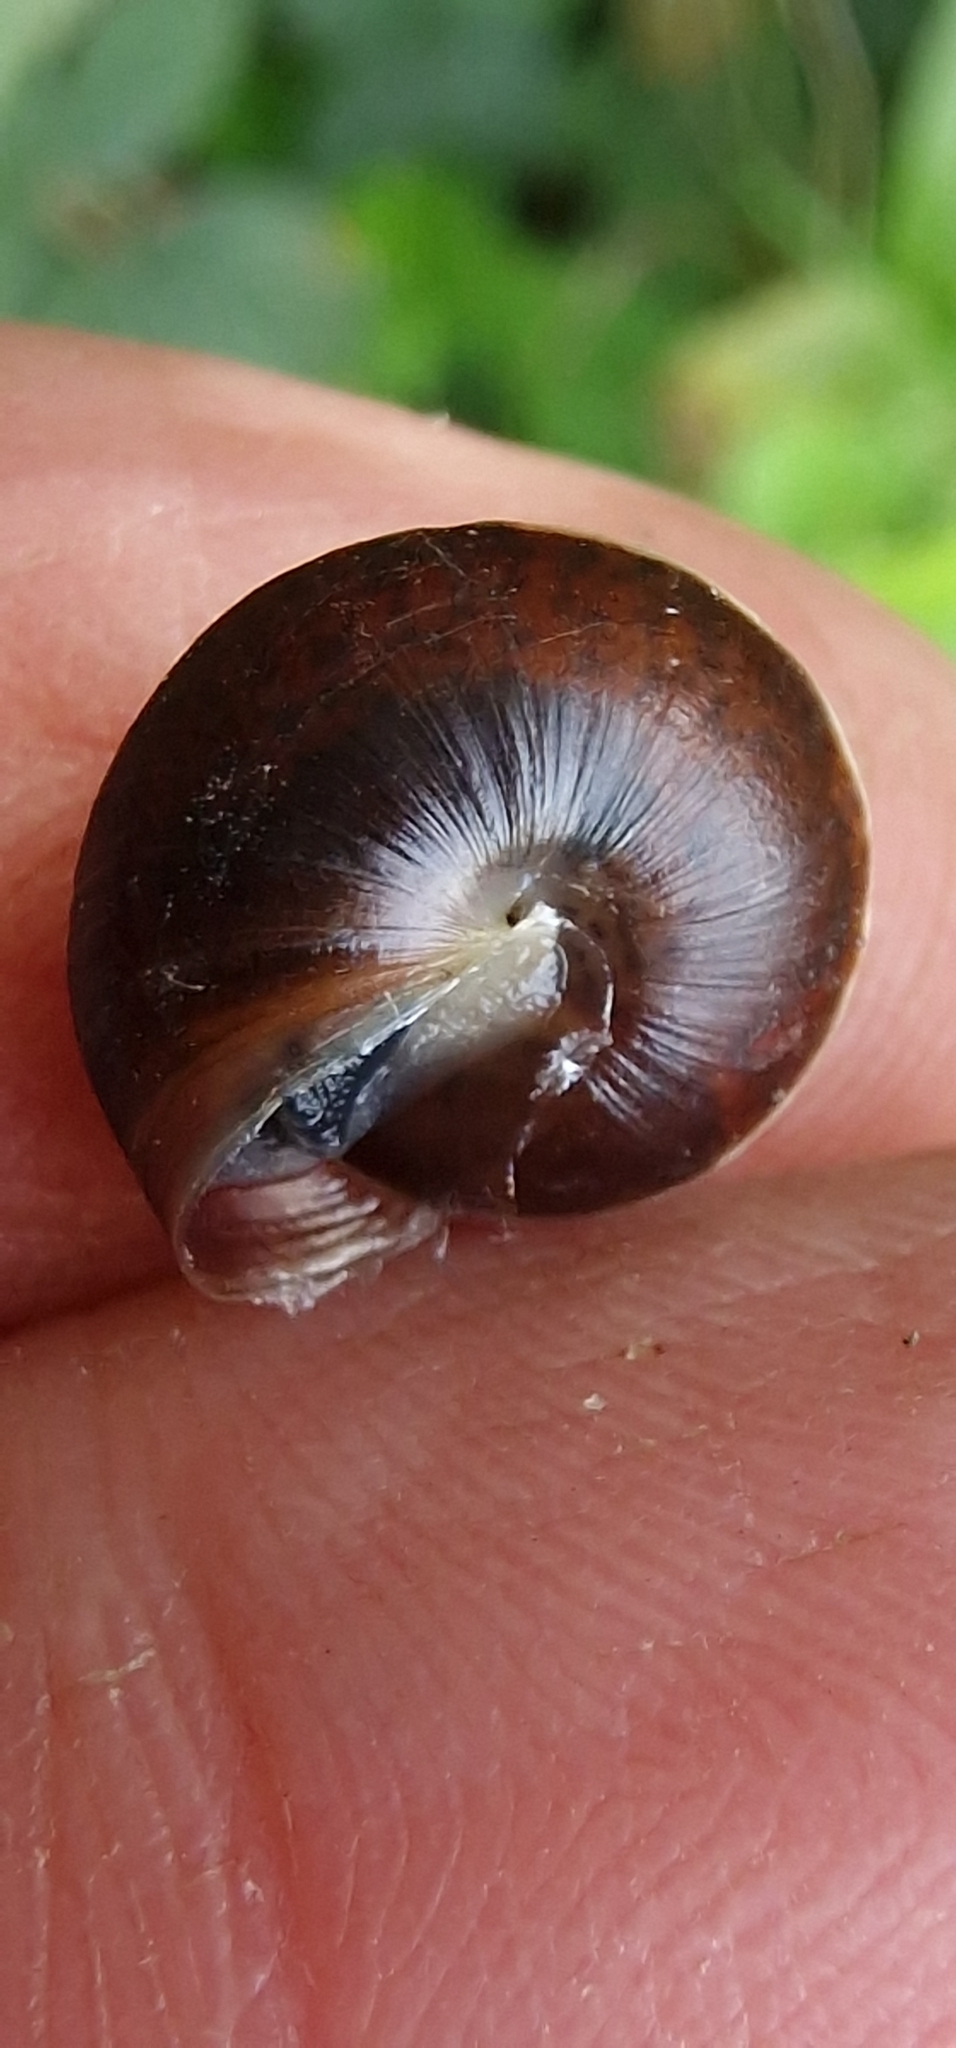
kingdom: Animalia
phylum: Mollusca
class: Gastropoda
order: Stylommatophora
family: Hygromiidae
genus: Hygromia
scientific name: Hygromia cinctella
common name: Girdled snail
